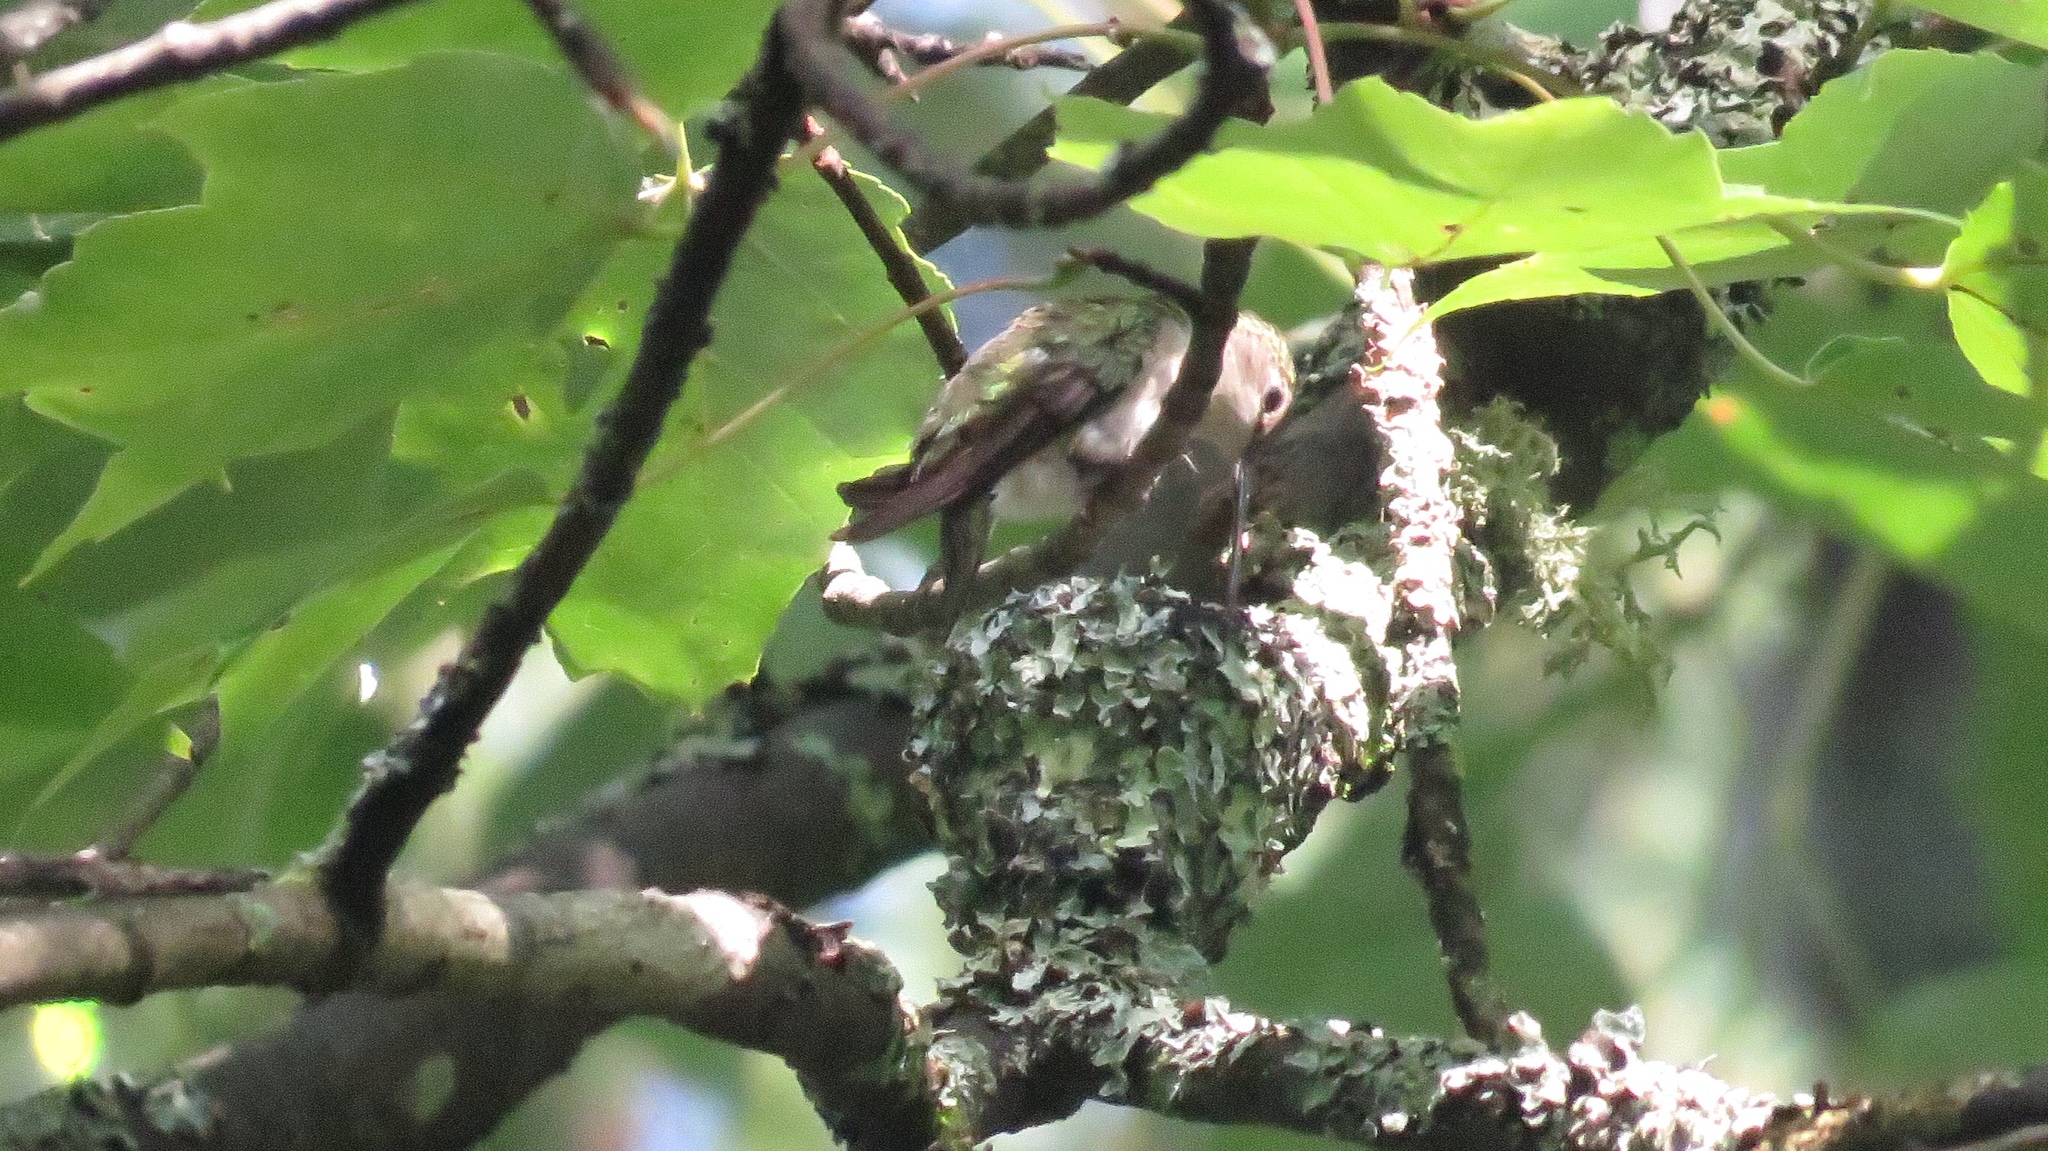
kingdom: Animalia
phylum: Chordata
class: Aves
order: Apodiformes
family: Trochilidae
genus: Archilochus
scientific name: Archilochus colubris
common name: Ruby-throated hummingbird
